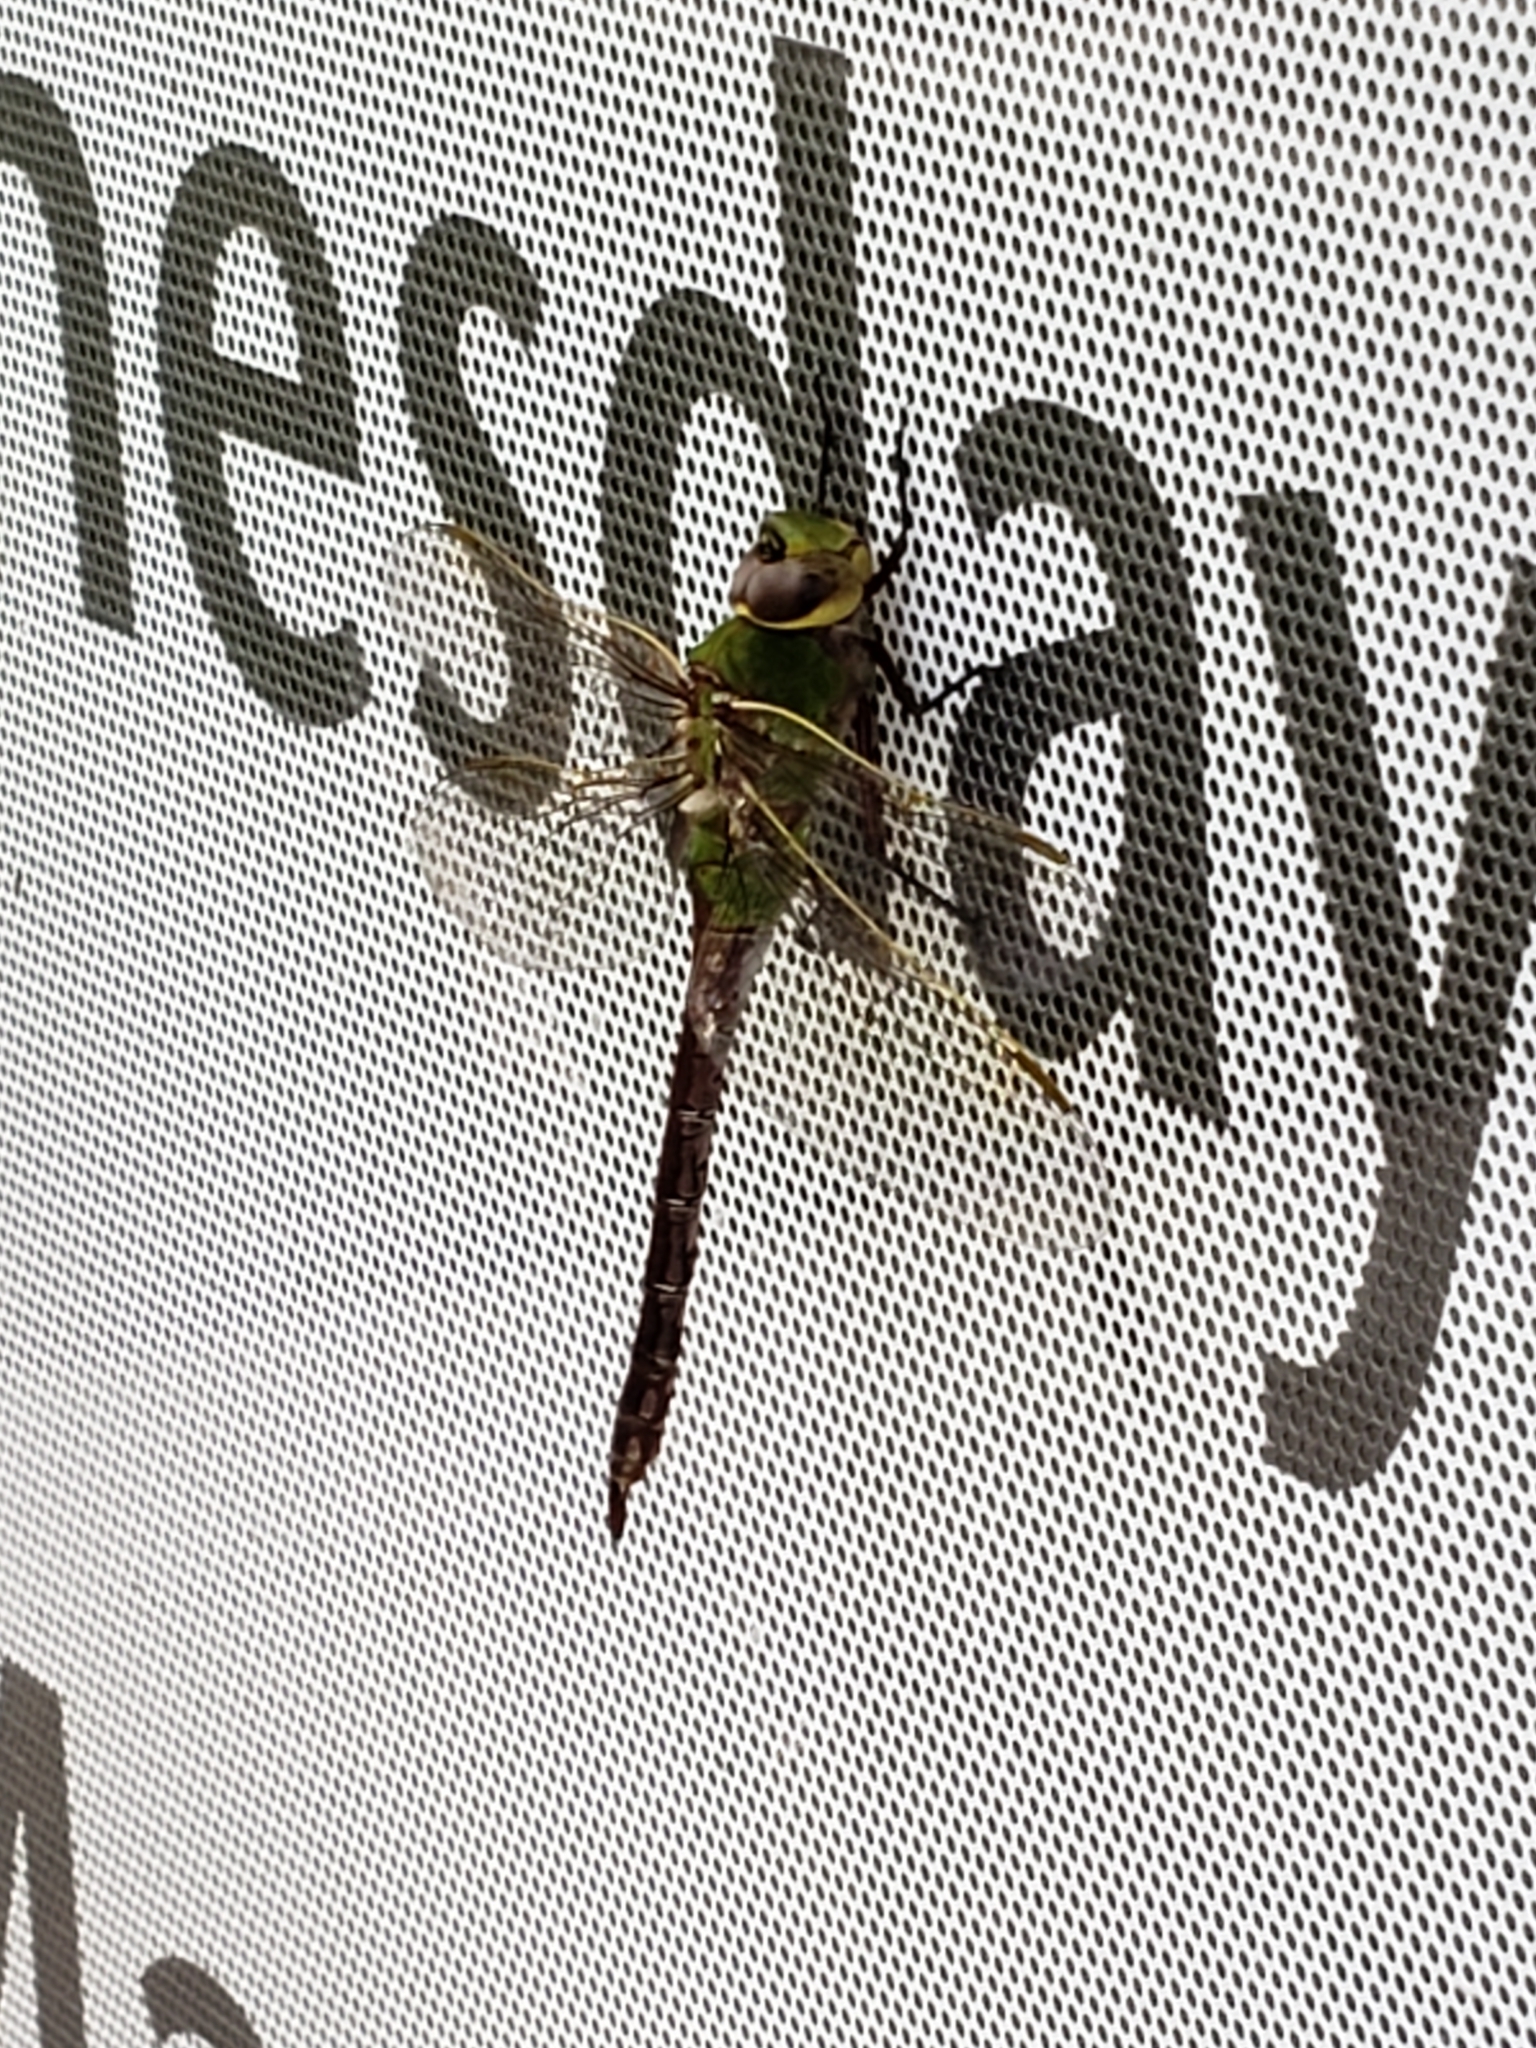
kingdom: Animalia
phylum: Arthropoda
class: Insecta
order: Odonata
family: Aeshnidae
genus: Anax
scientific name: Anax junius
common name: Common green darner
